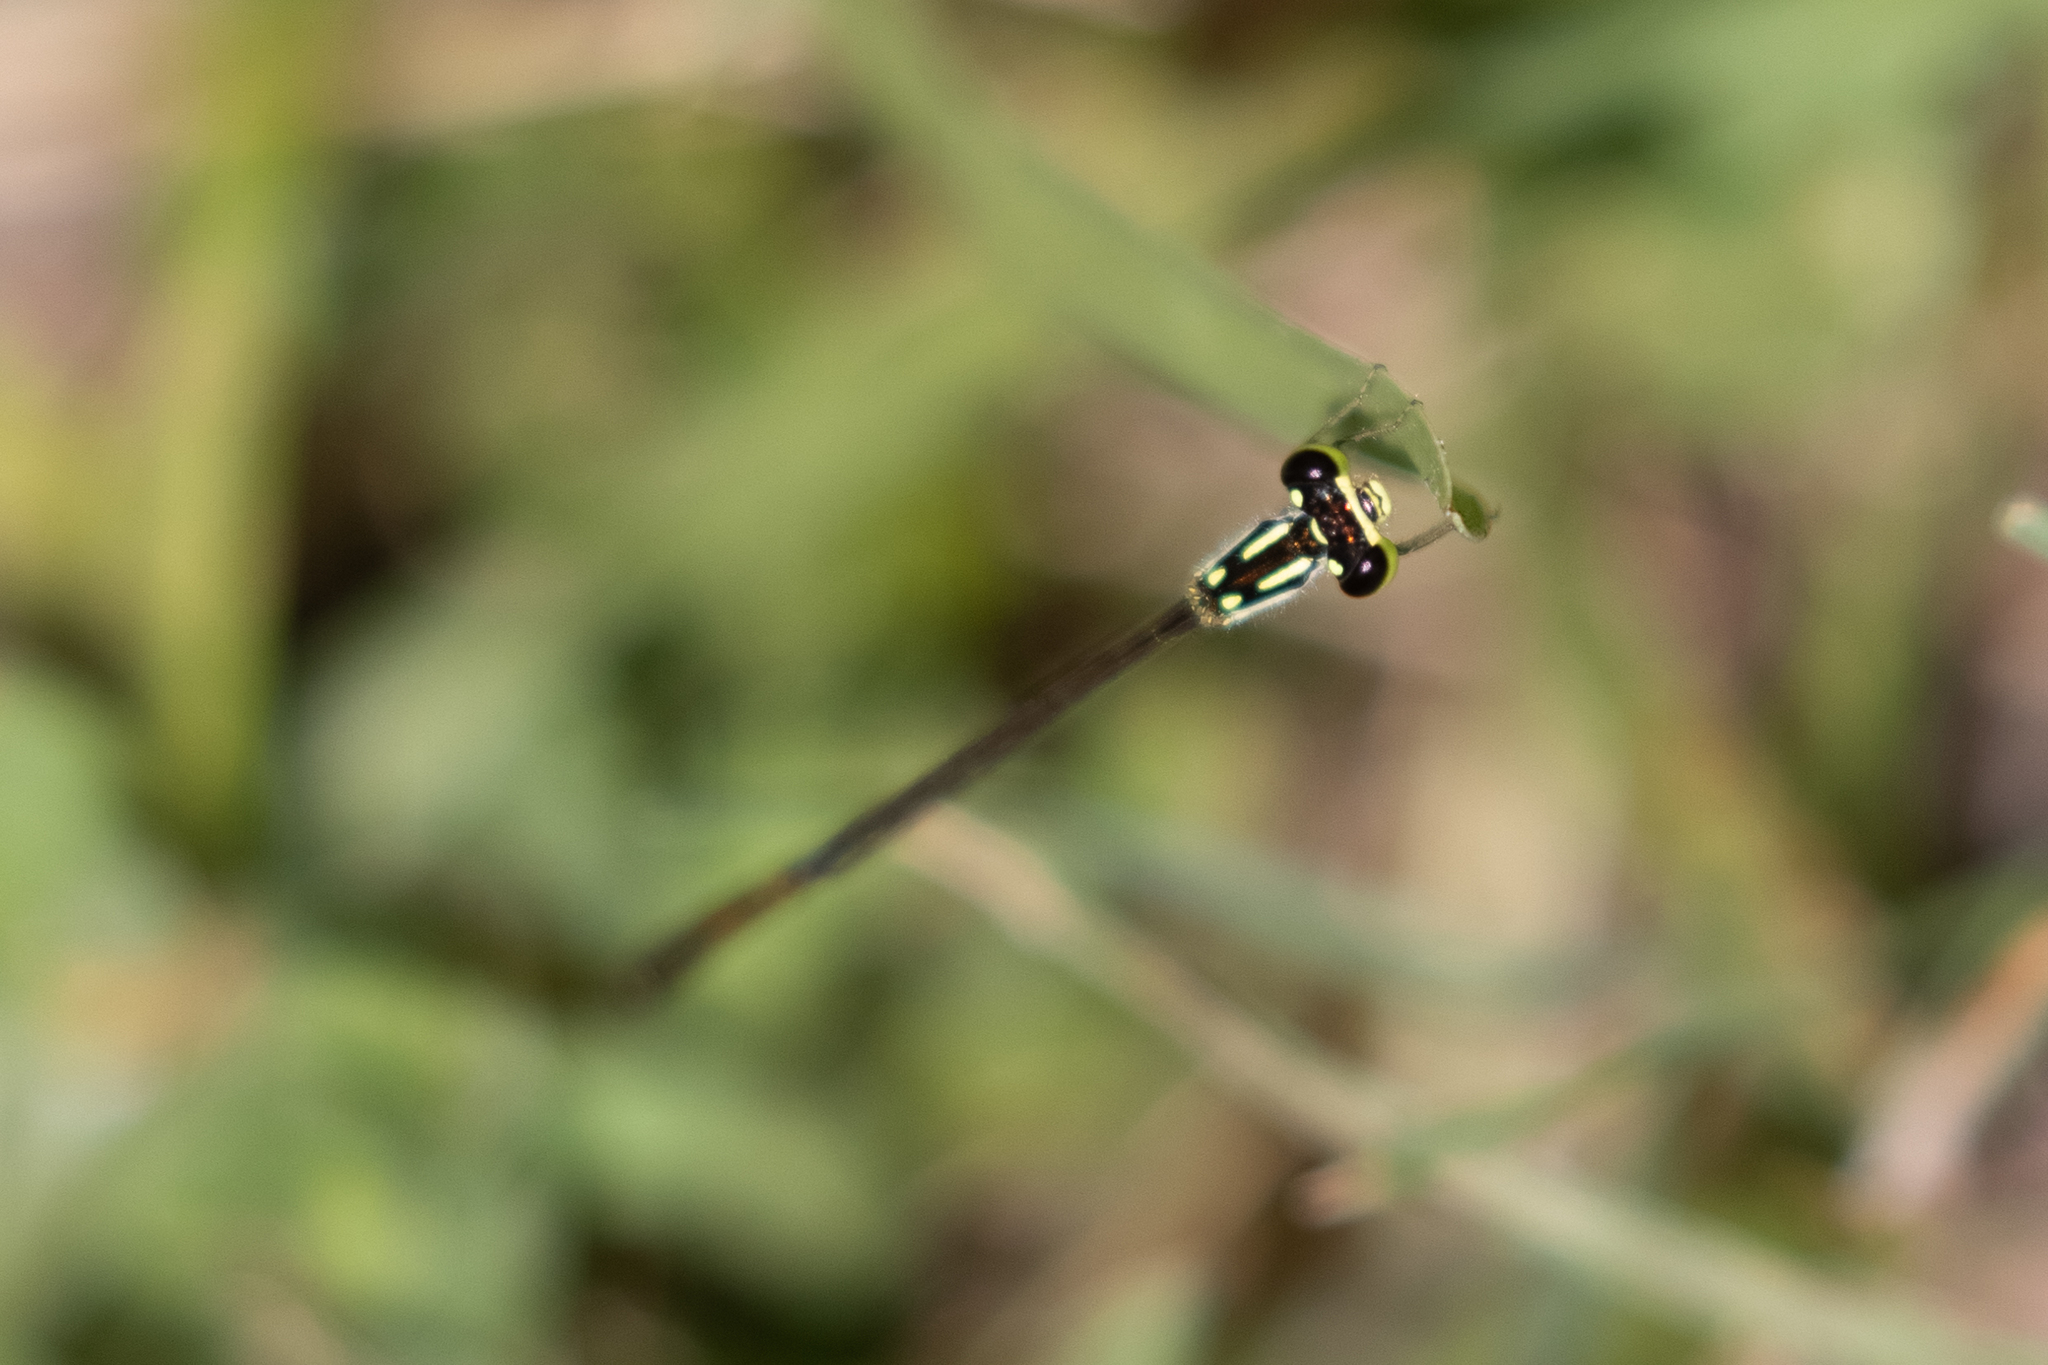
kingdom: Animalia
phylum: Arthropoda
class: Insecta
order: Odonata
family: Coenagrionidae
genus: Ischnura
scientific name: Ischnura posita
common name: Fragile forktail
